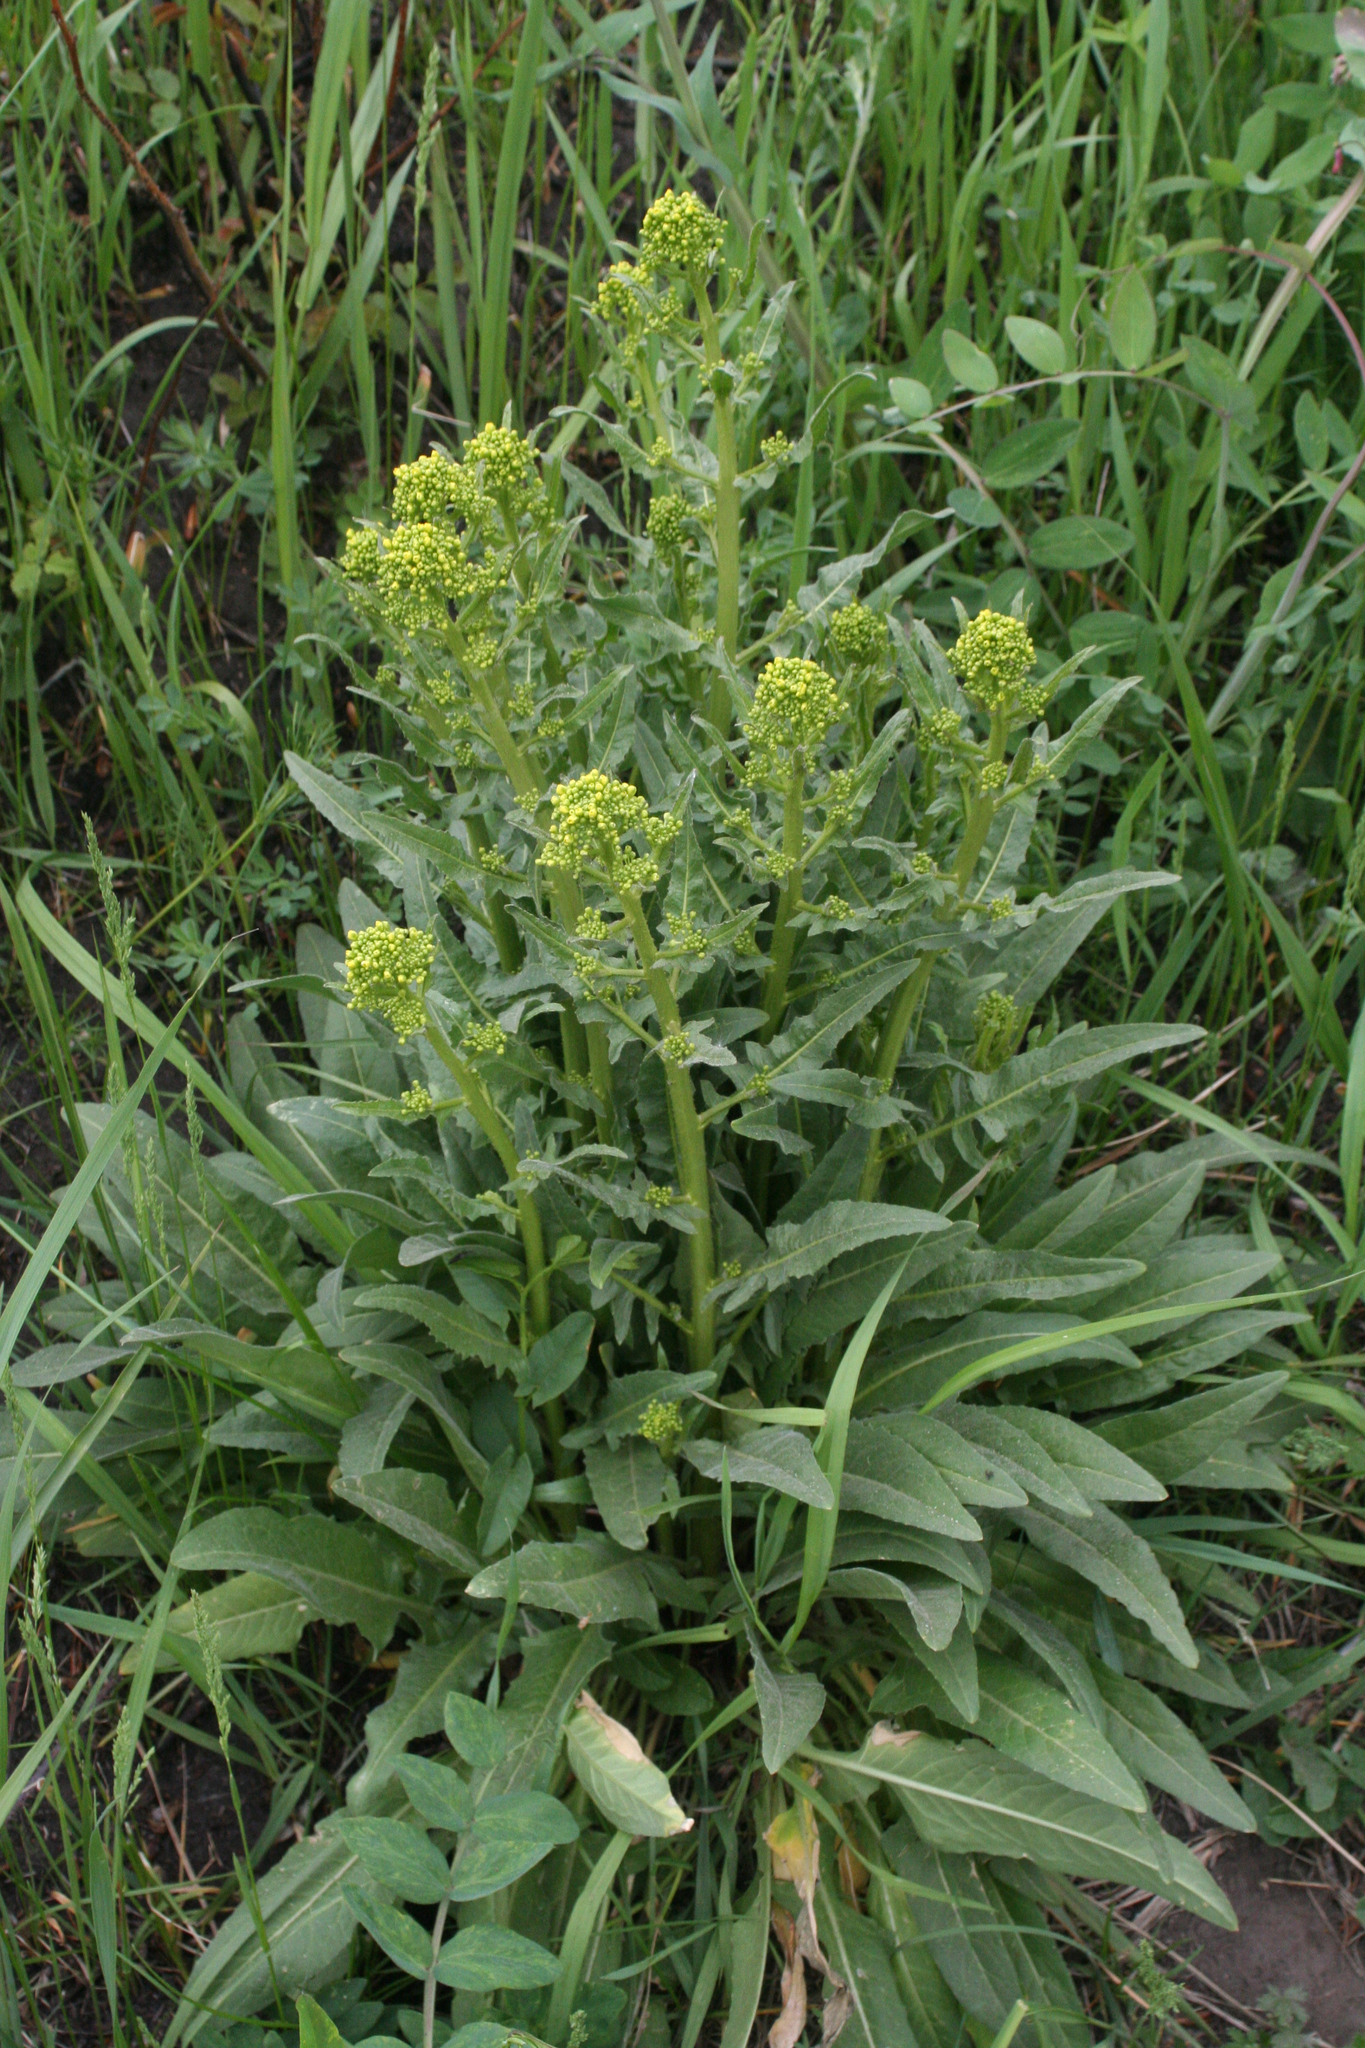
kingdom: Plantae
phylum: Tracheophyta
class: Magnoliopsida
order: Brassicales
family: Brassicaceae
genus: Bunias
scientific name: Bunias orientalis
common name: Warty-cabbage
